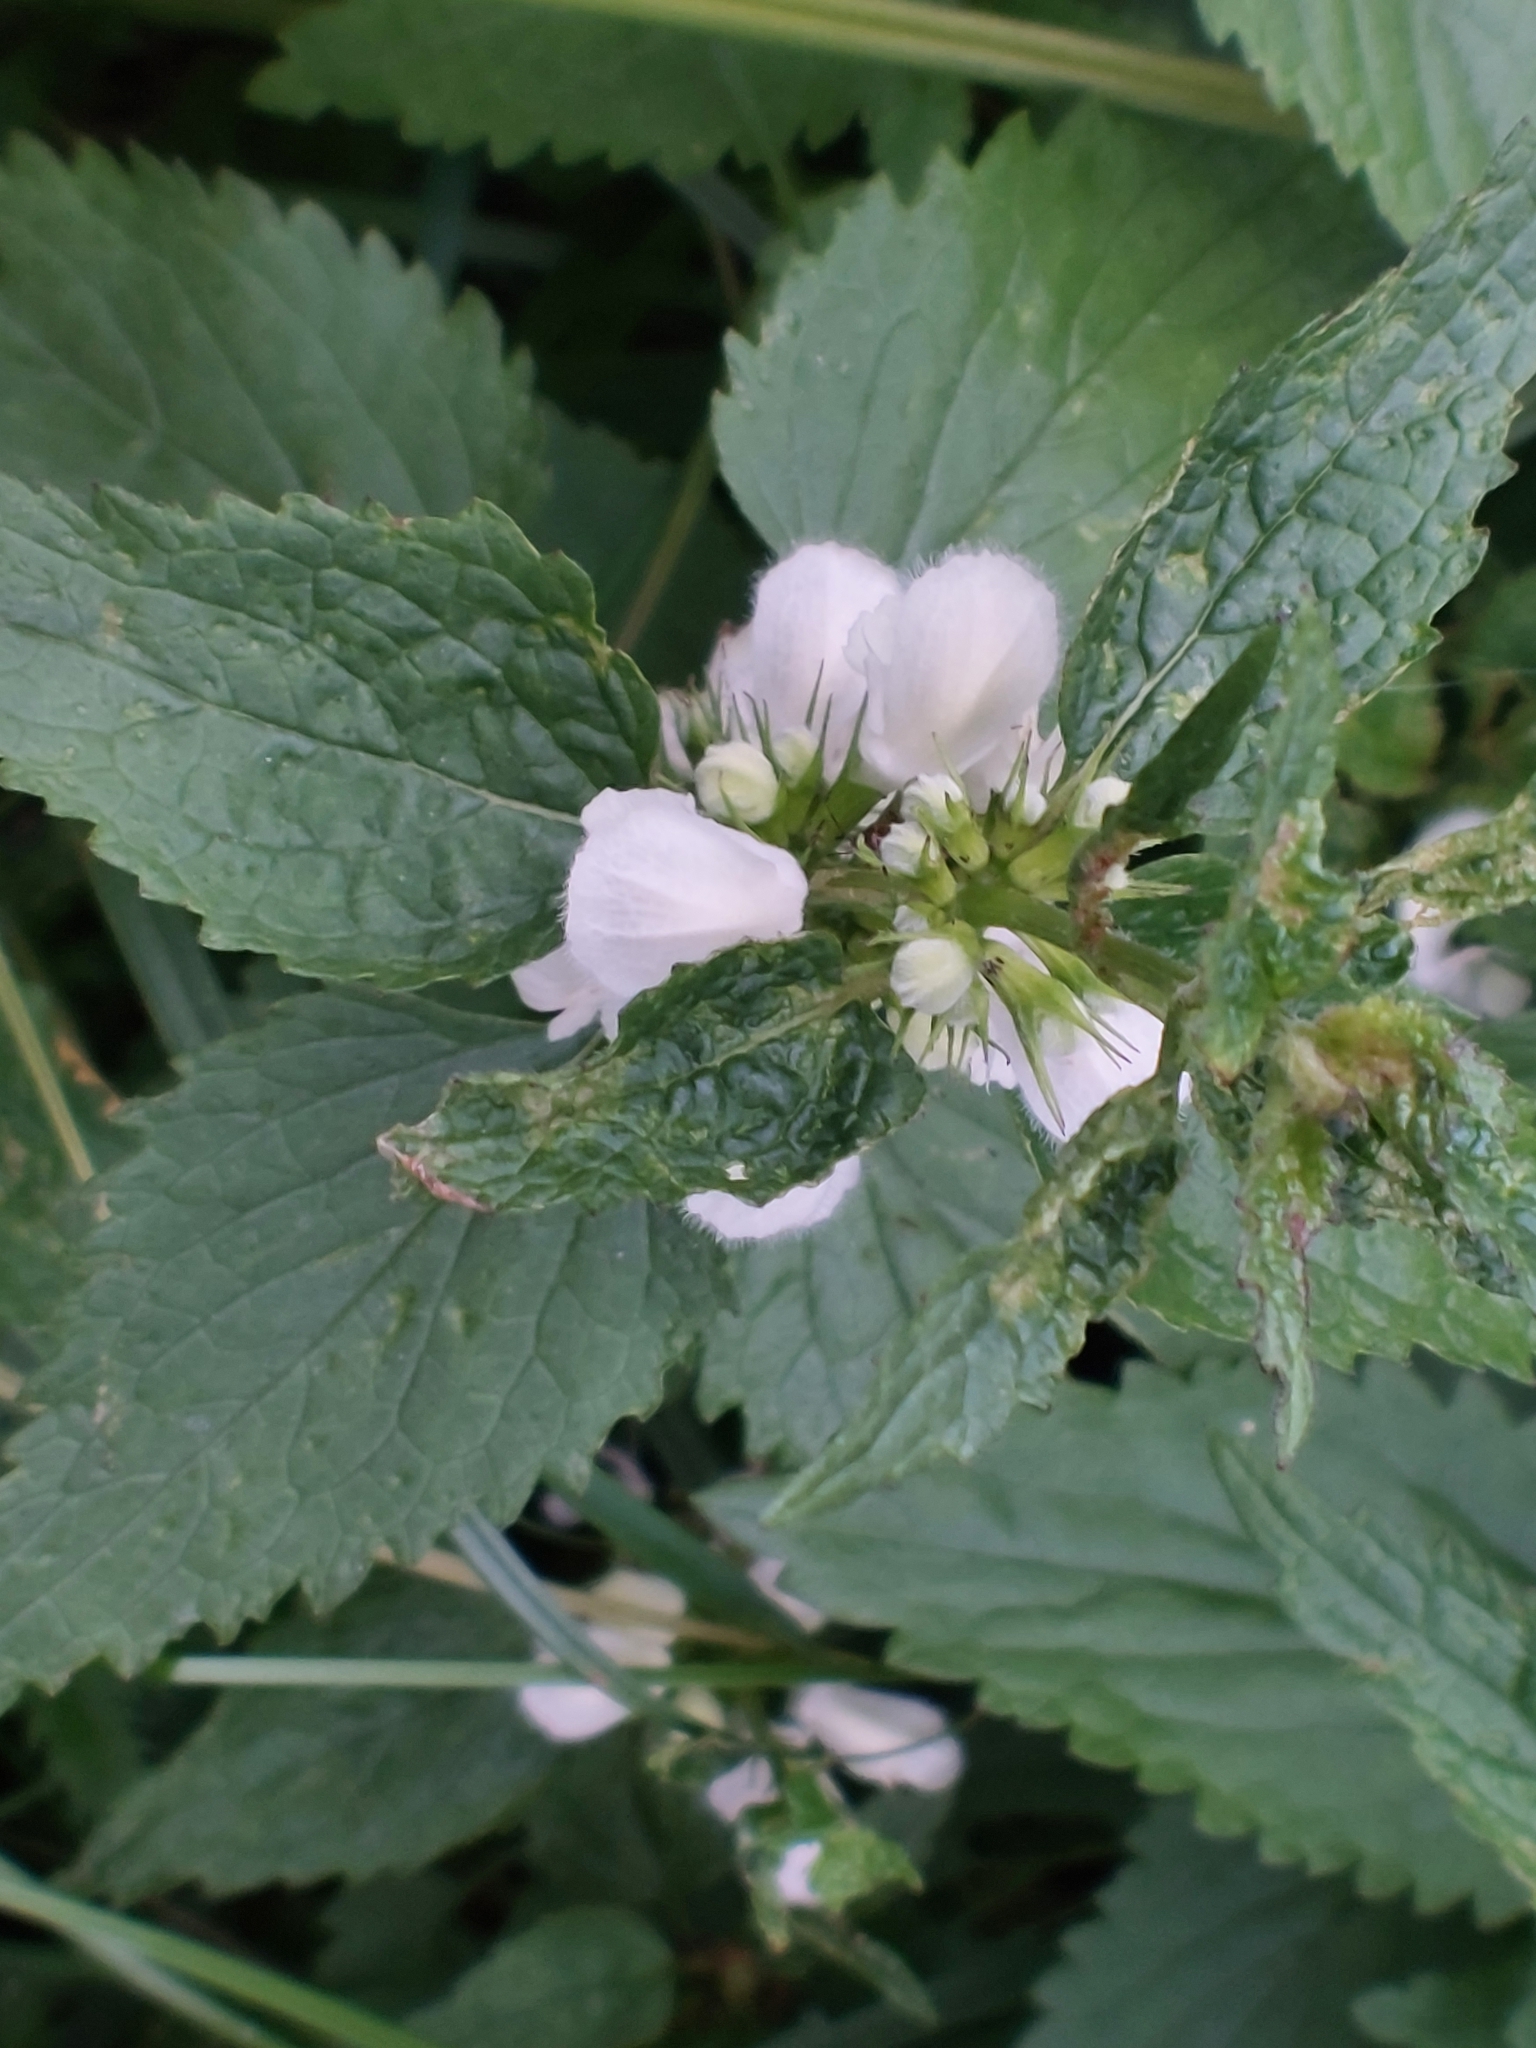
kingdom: Plantae
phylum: Tracheophyta
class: Magnoliopsida
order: Lamiales
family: Lamiaceae
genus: Lamium
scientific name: Lamium album
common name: White dead-nettle
